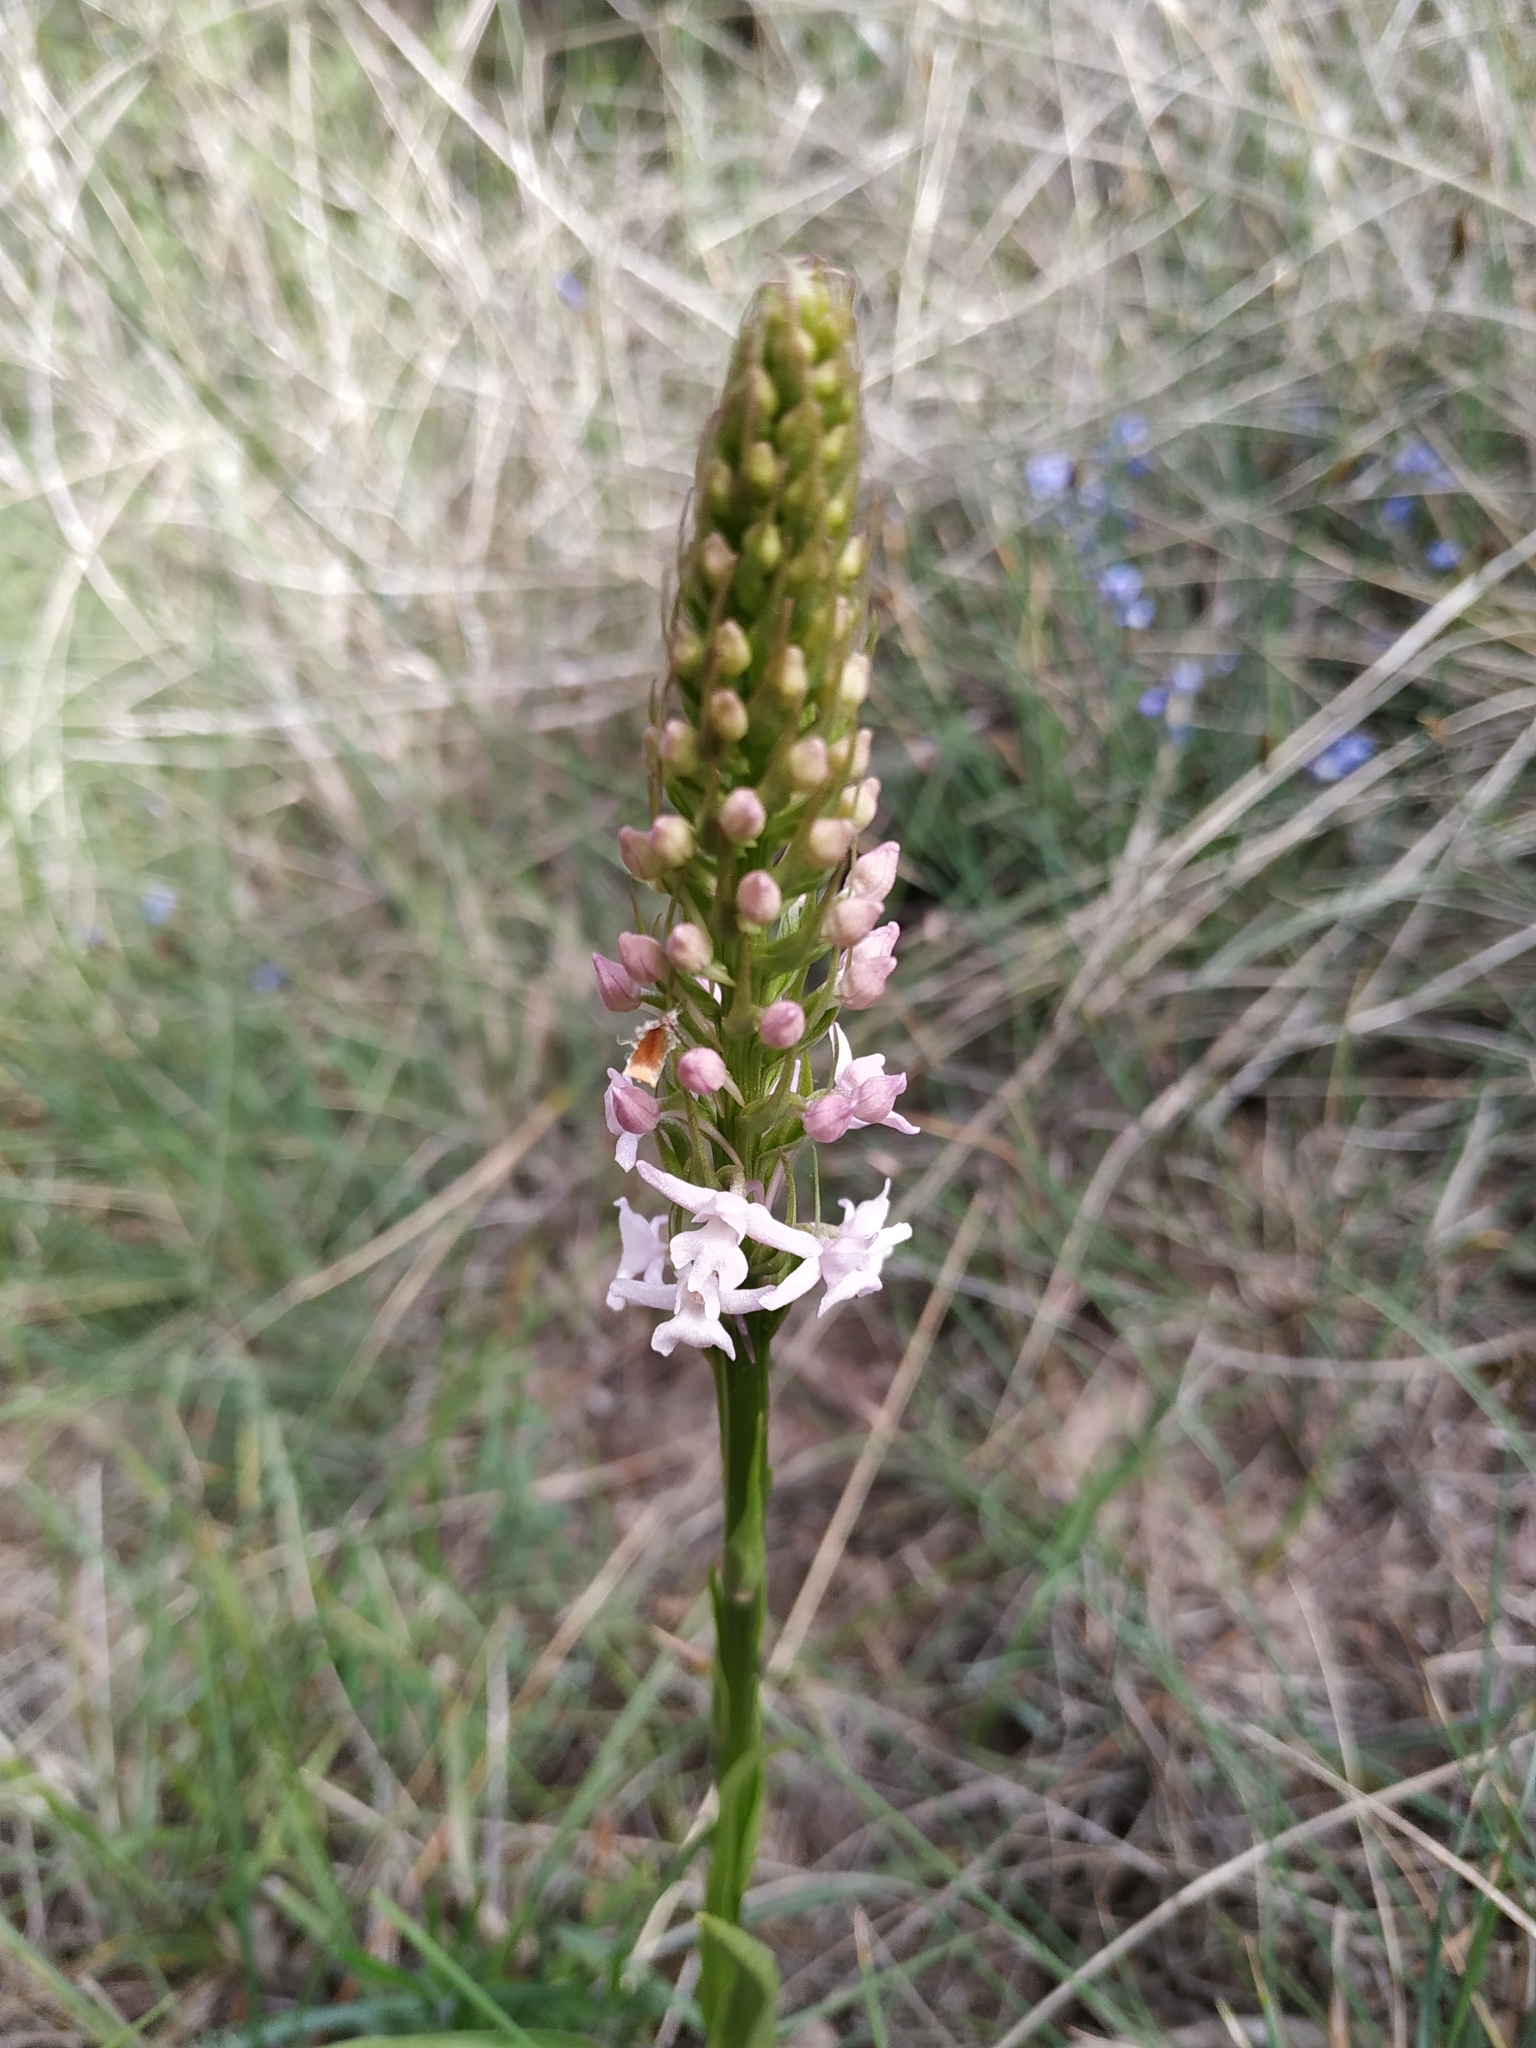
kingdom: Plantae
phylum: Tracheophyta
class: Liliopsida
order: Asparagales
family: Orchidaceae
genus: Gymnadenia
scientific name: Gymnadenia conopsea
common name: Fragrant orchid
